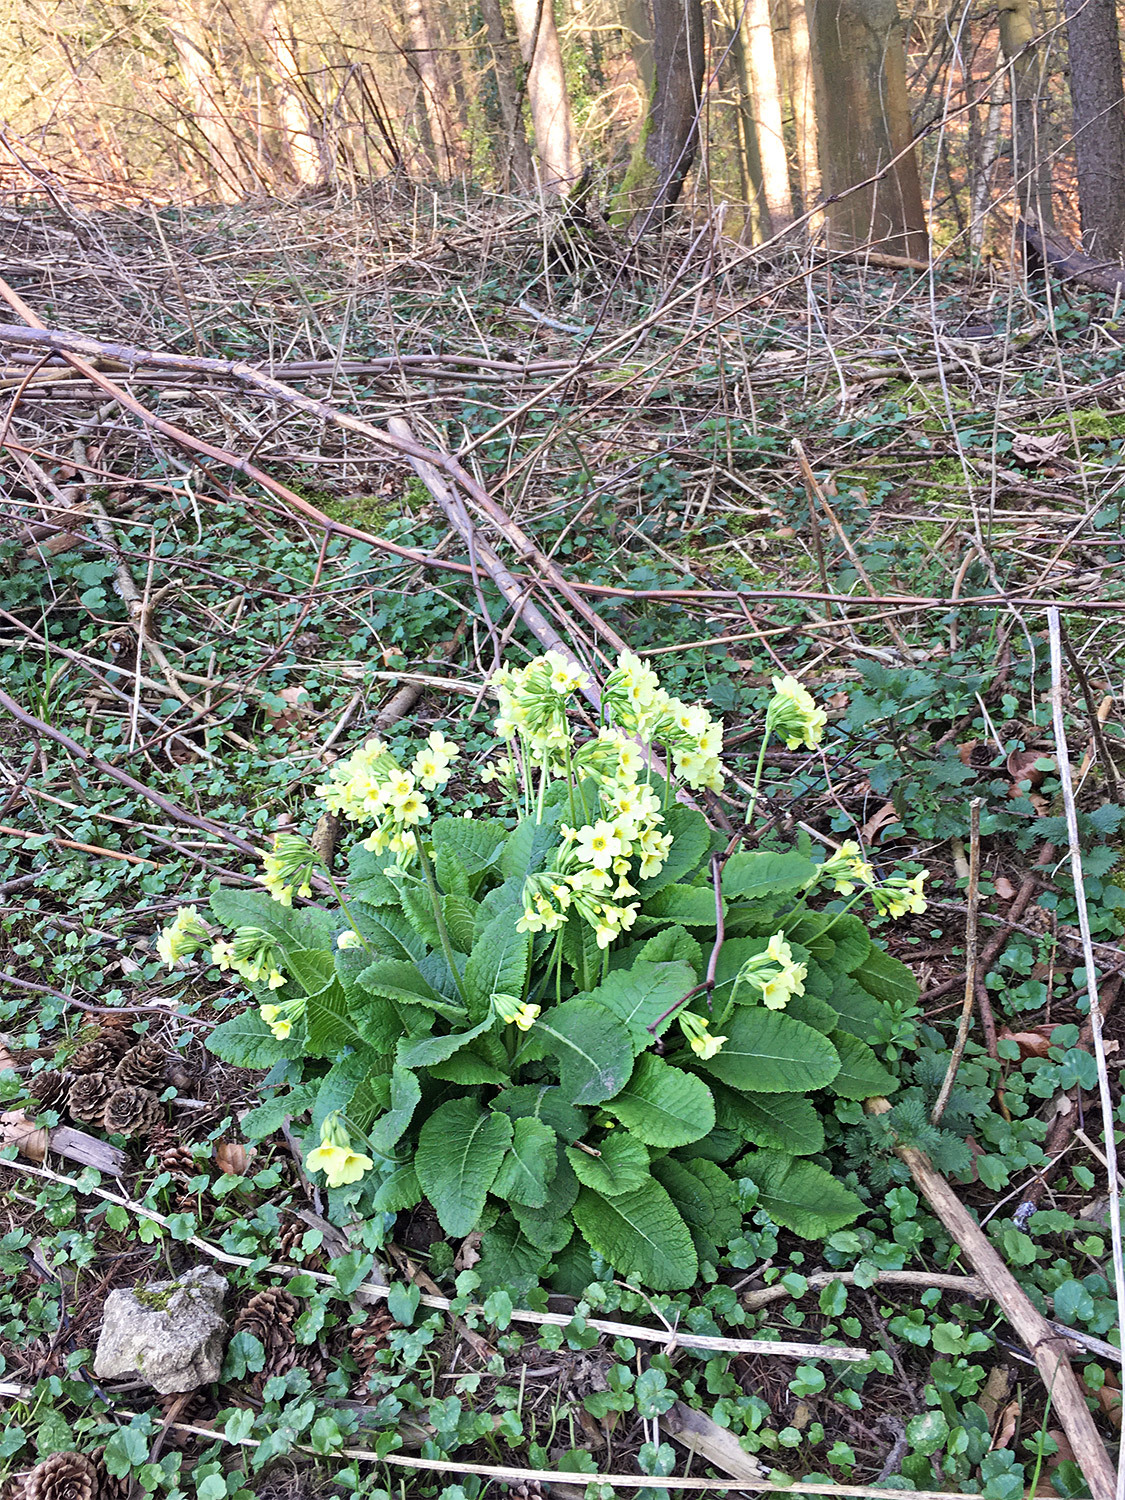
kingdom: Plantae
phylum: Tracheophyta
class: Magnoliopsida
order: Ericales
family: Primulaceae
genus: Primula
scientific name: Primula elatior
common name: Oxlip
